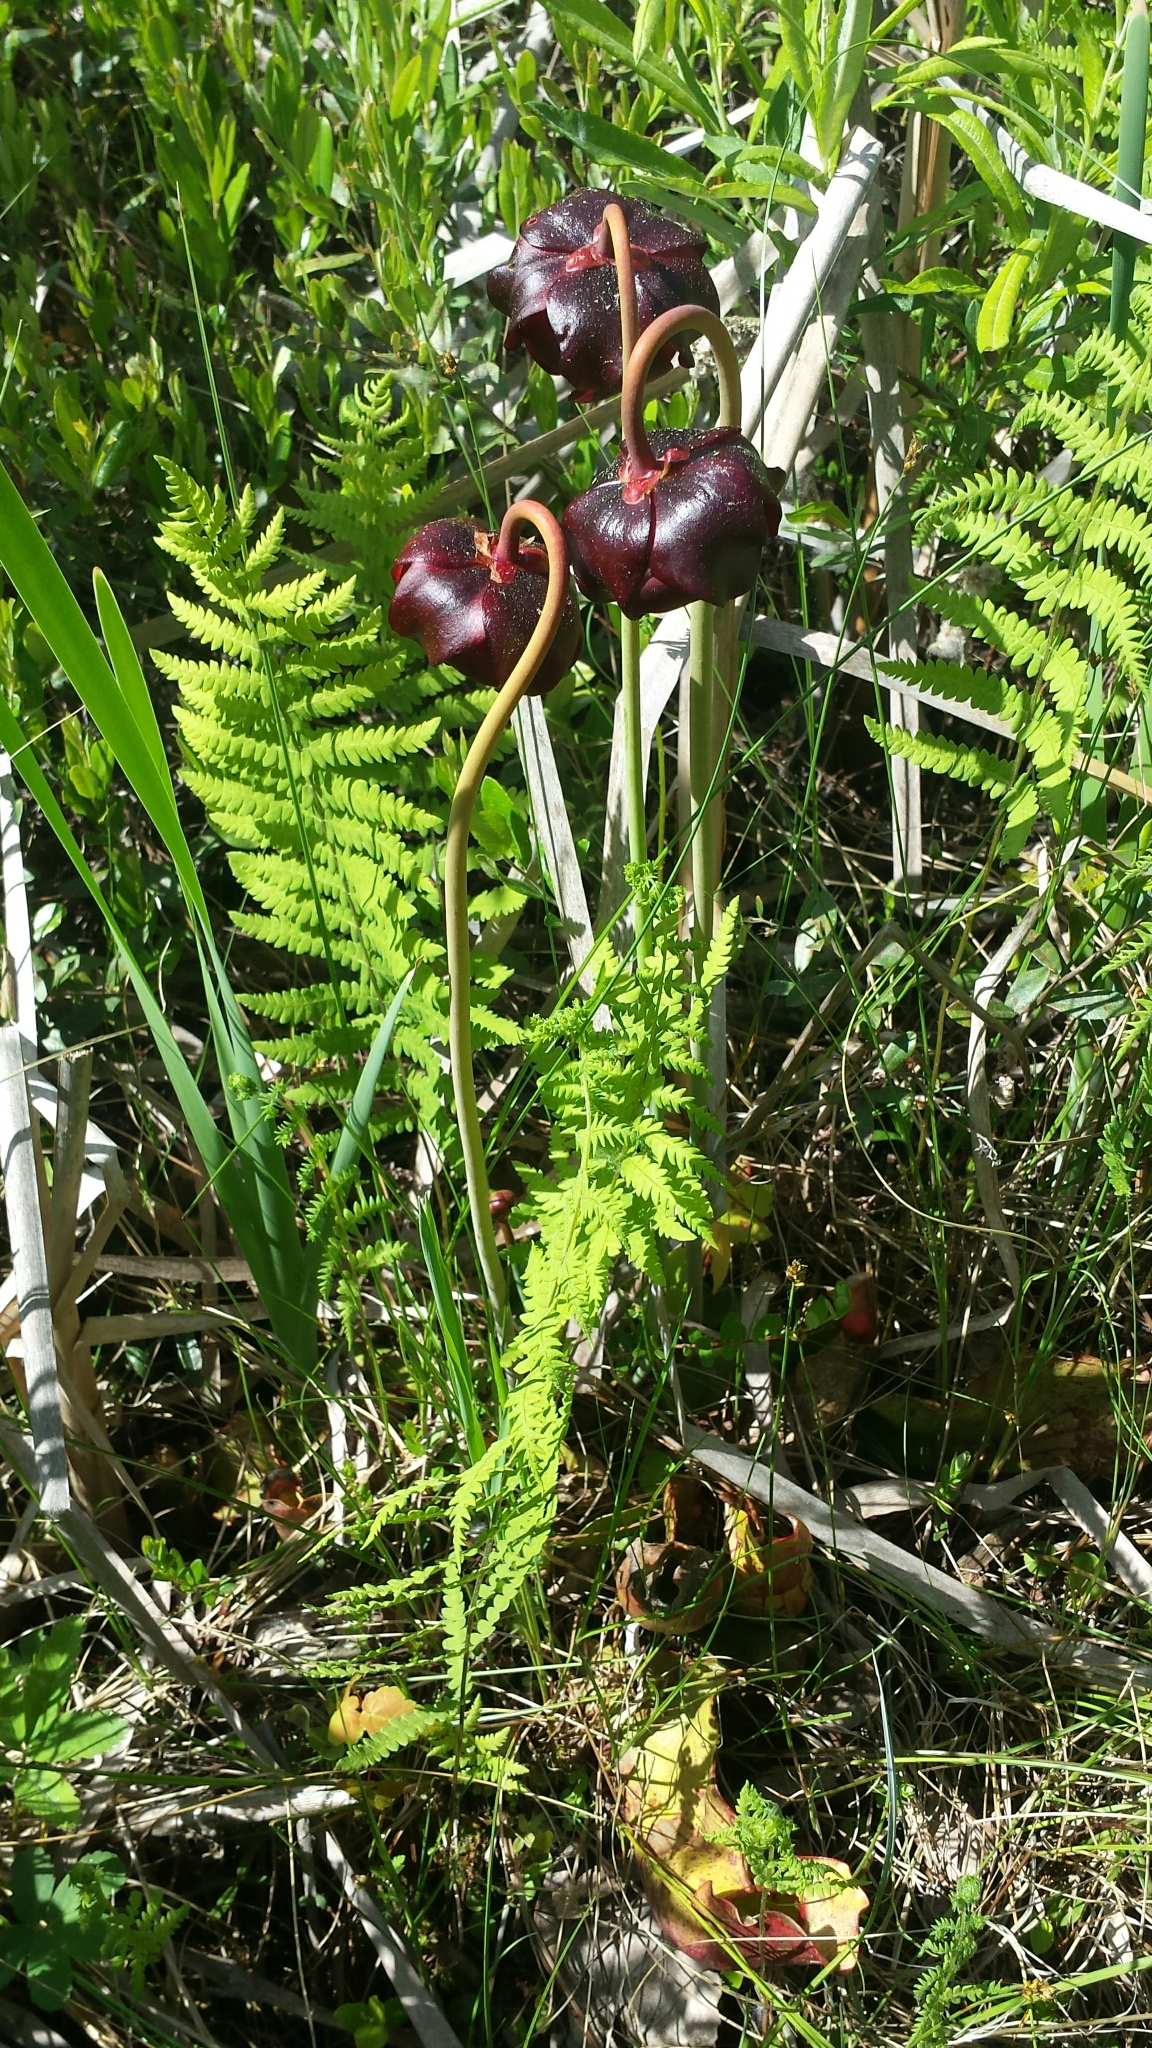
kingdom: Plantae
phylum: Tracheophyta
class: Magnoliopsida
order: Ericales
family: Sarraceniaceae
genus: Sarracenia
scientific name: Sarracenia purpurea
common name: Pitcherplant
